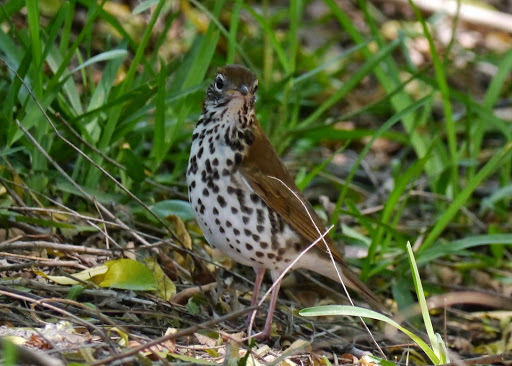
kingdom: Animalia
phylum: Chordata
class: Aves
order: Passeriformes
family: Turdidae
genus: Hylocichla
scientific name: Hylocichla mustelina
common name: Wood thrush
